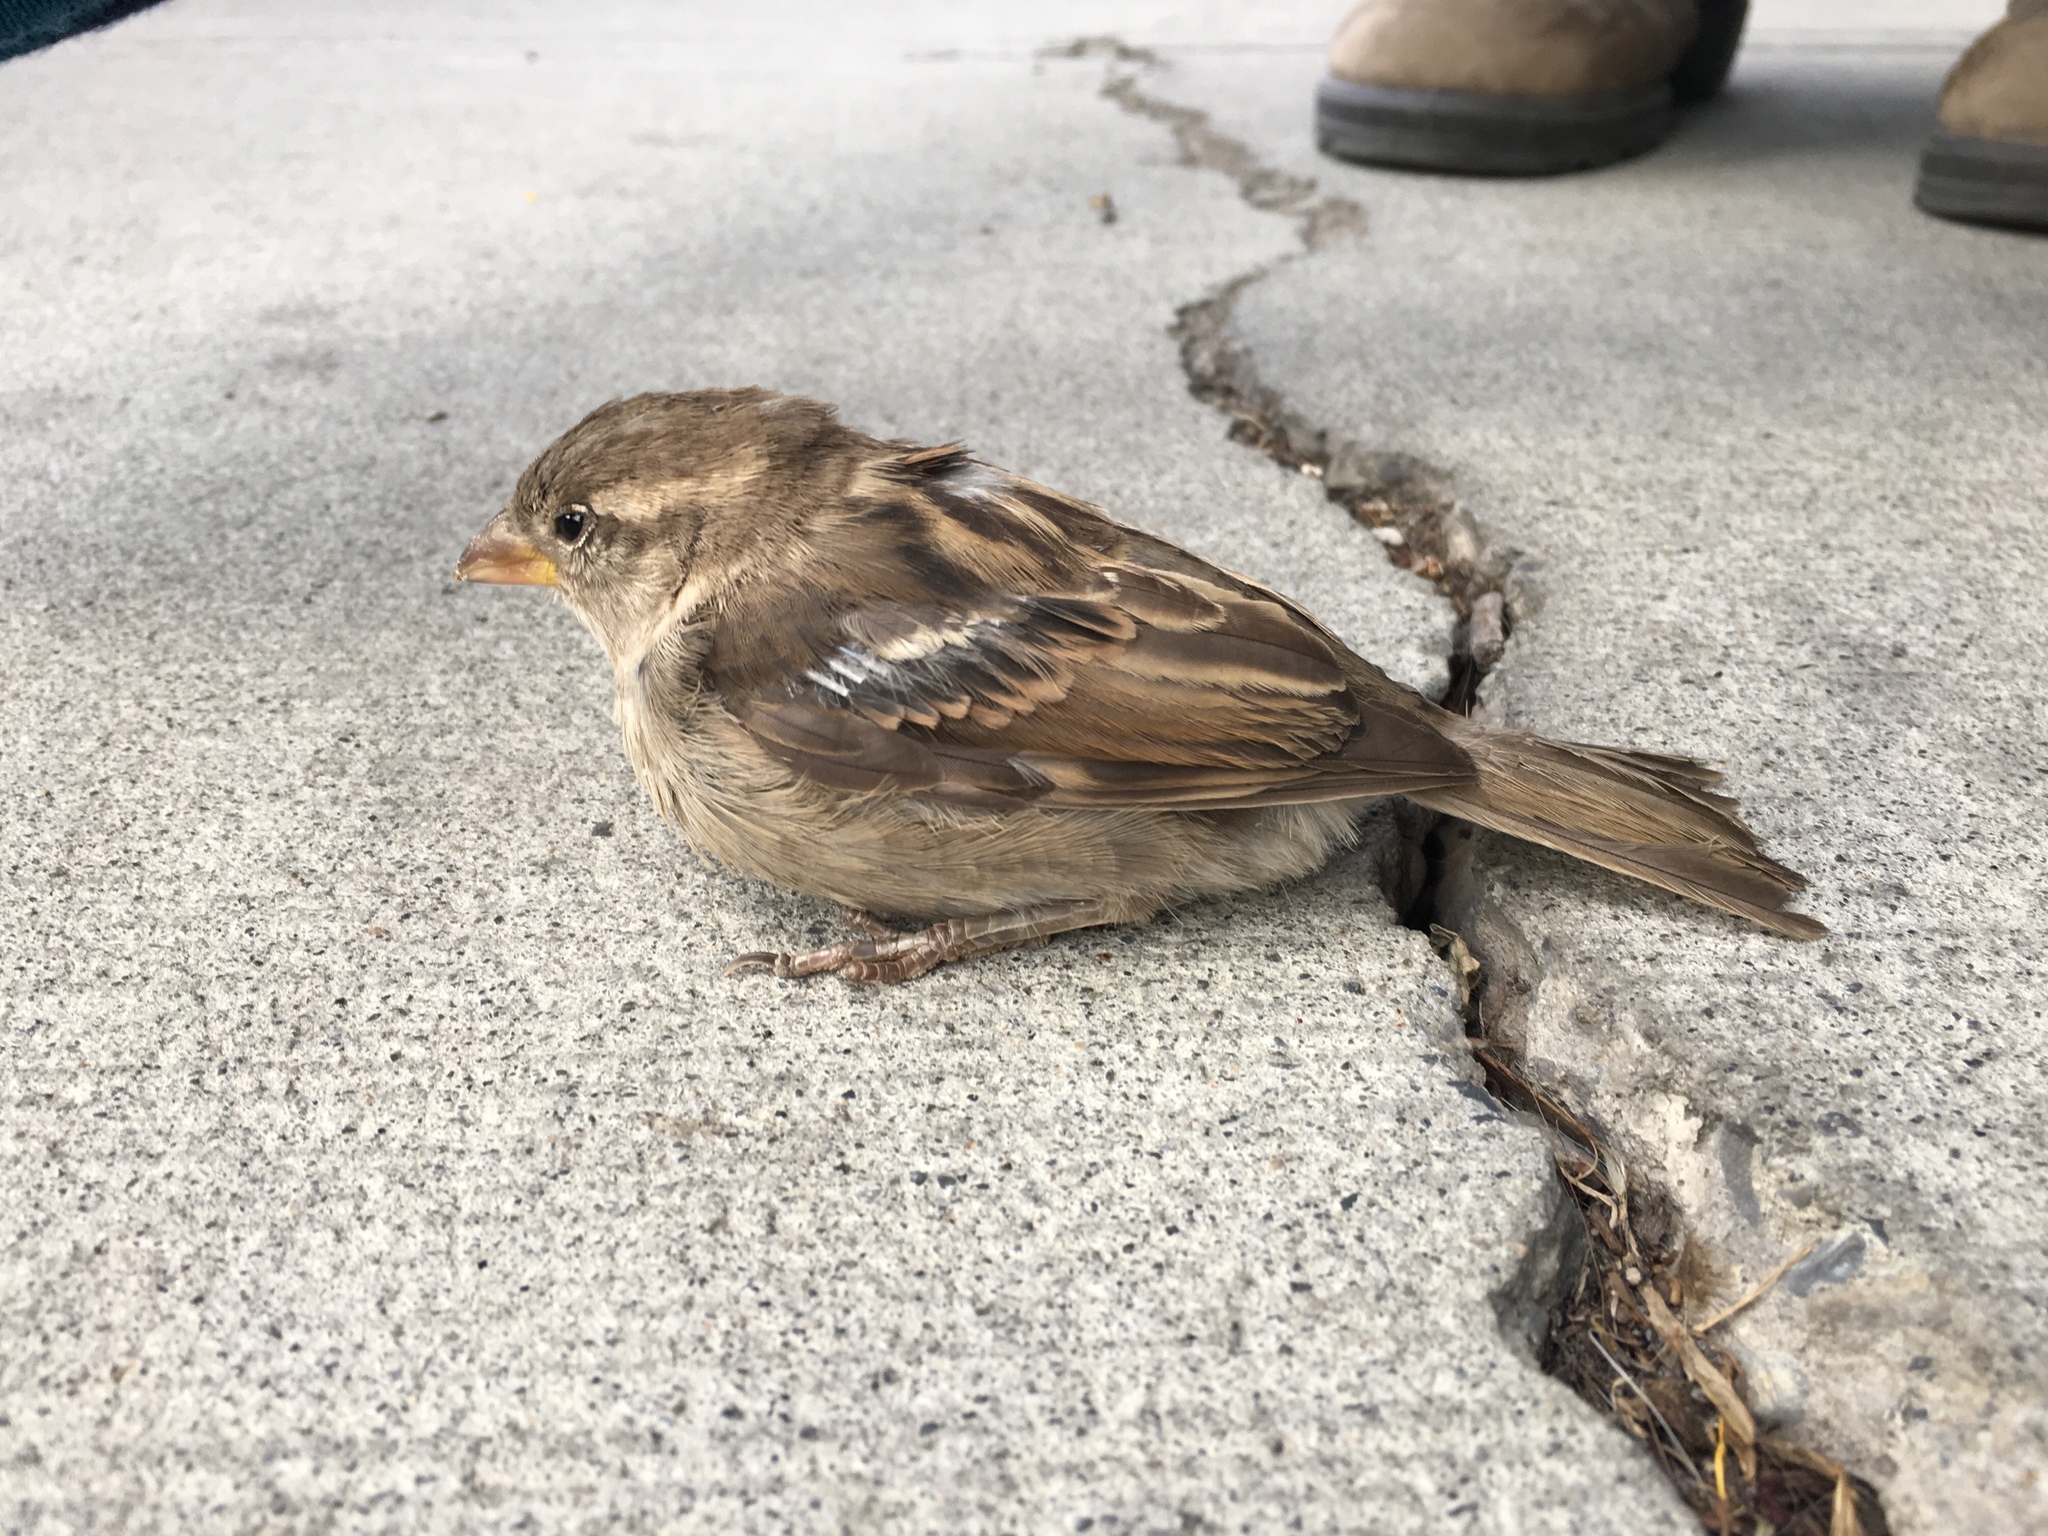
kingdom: Animalia
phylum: Chordata
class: Aves
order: Passeriformes
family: Passeridae
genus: Passer
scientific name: Passer domesticus
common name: House sparrow
